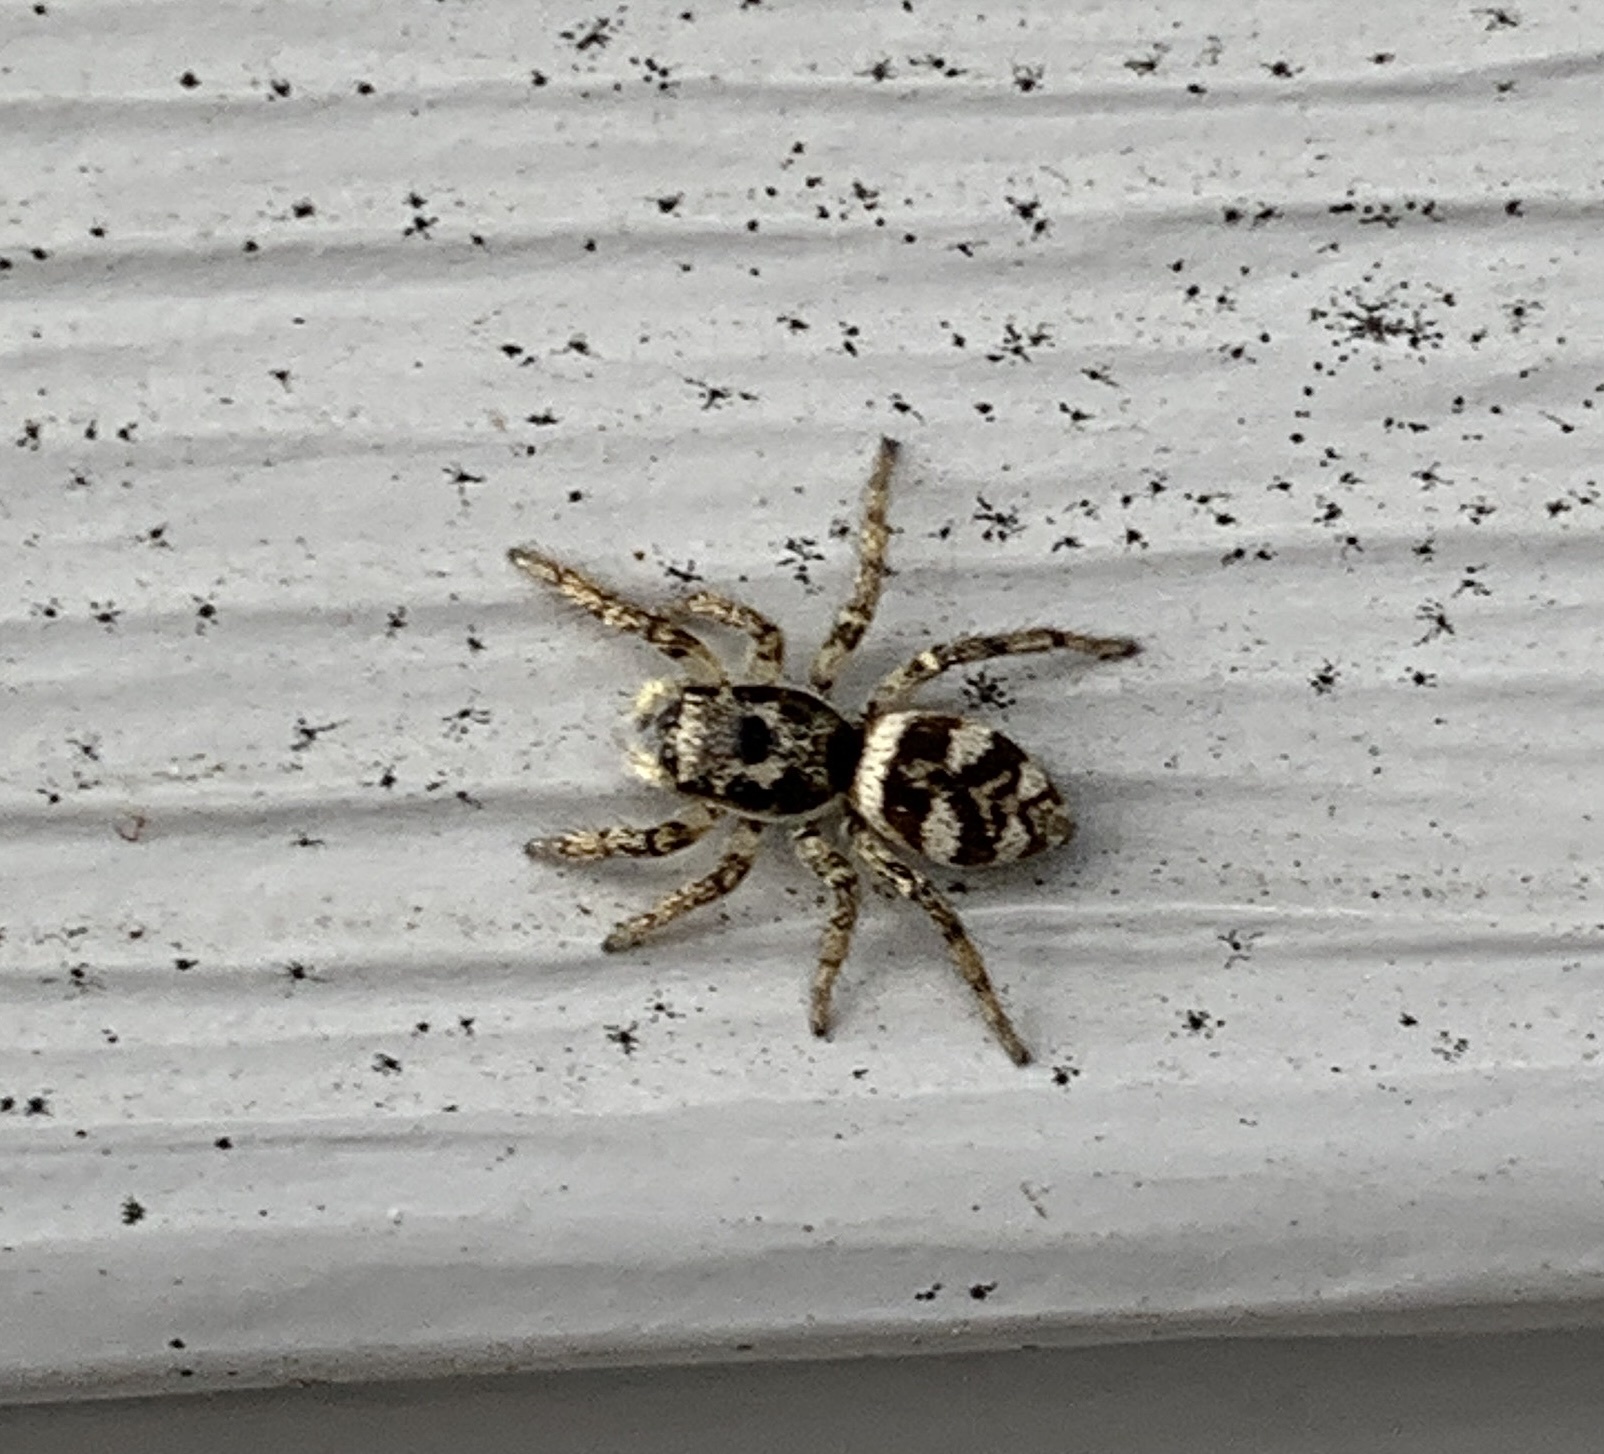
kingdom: Animalia
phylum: Arthropoda
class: Arachnida
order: Araneae
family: Salticidae
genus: Salticus
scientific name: Salticus scenicus
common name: Zebra jumper
